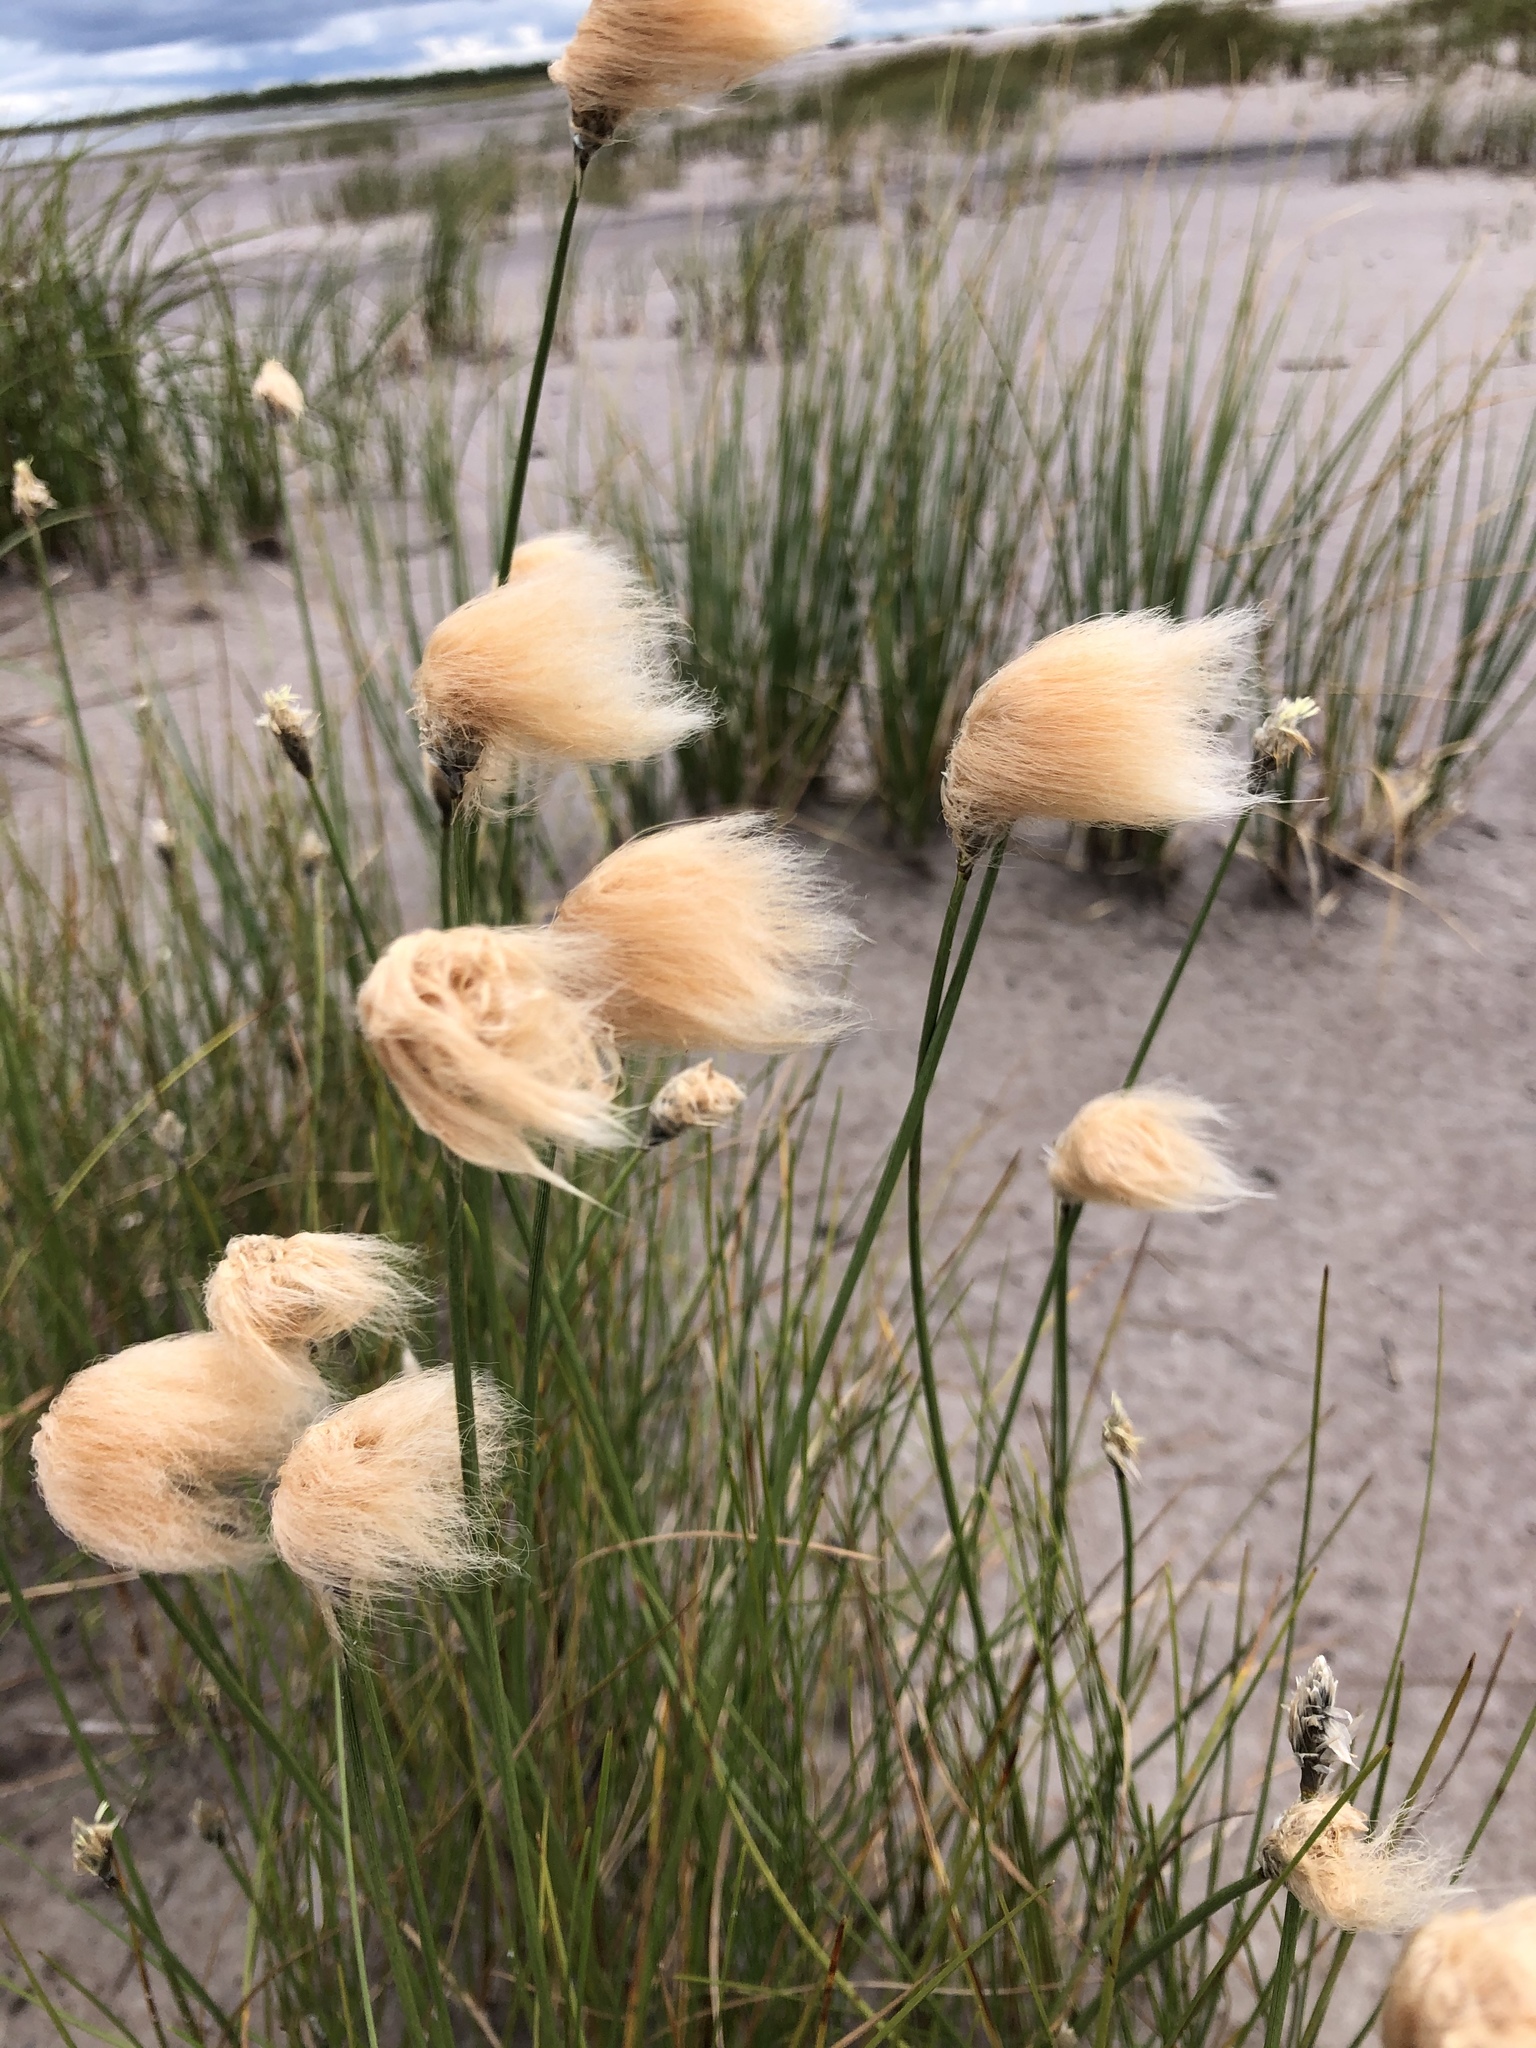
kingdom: Plantae
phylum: Tracheophyta
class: Liliopsida
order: Poales
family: Cyperaceae
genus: Eriophorum
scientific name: Eriophorum chamissonis
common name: Chamisso's cottongrass
